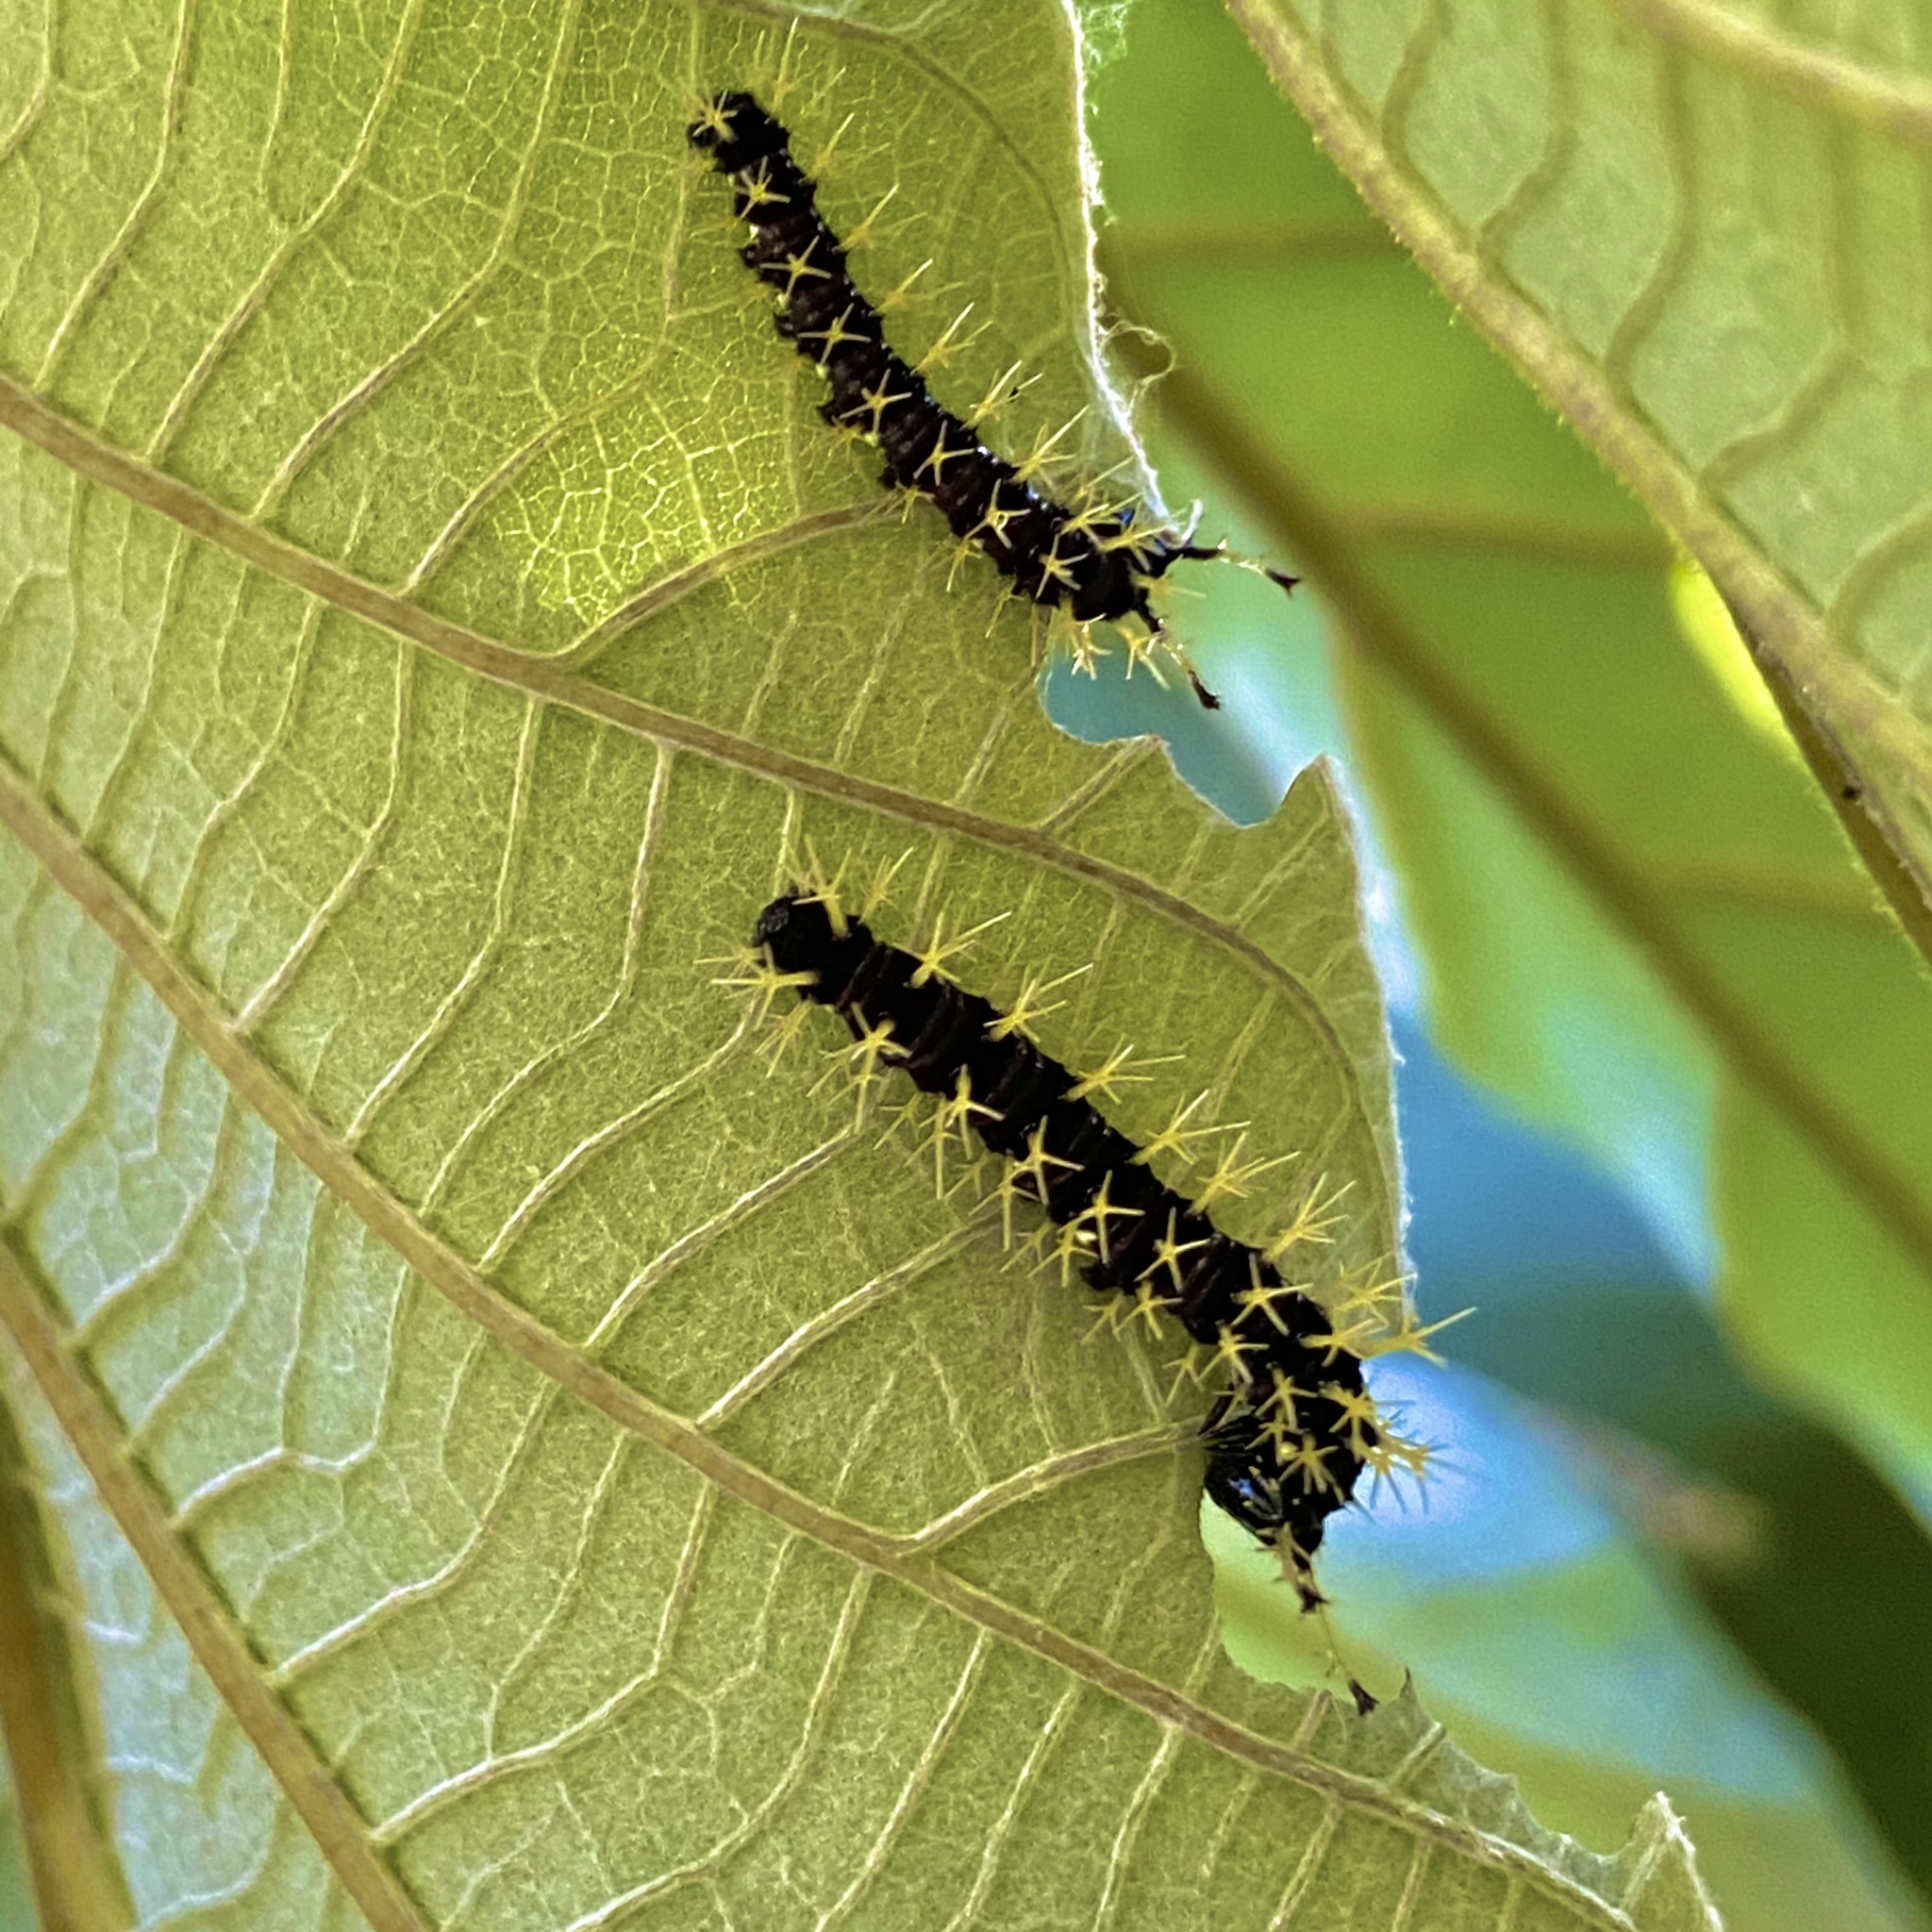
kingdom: Animalia
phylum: Arthropoda
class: Insecta
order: Lepidoptera
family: Nymphalidae
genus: Colobura
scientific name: Colobura dirce
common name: Dirce beauty
